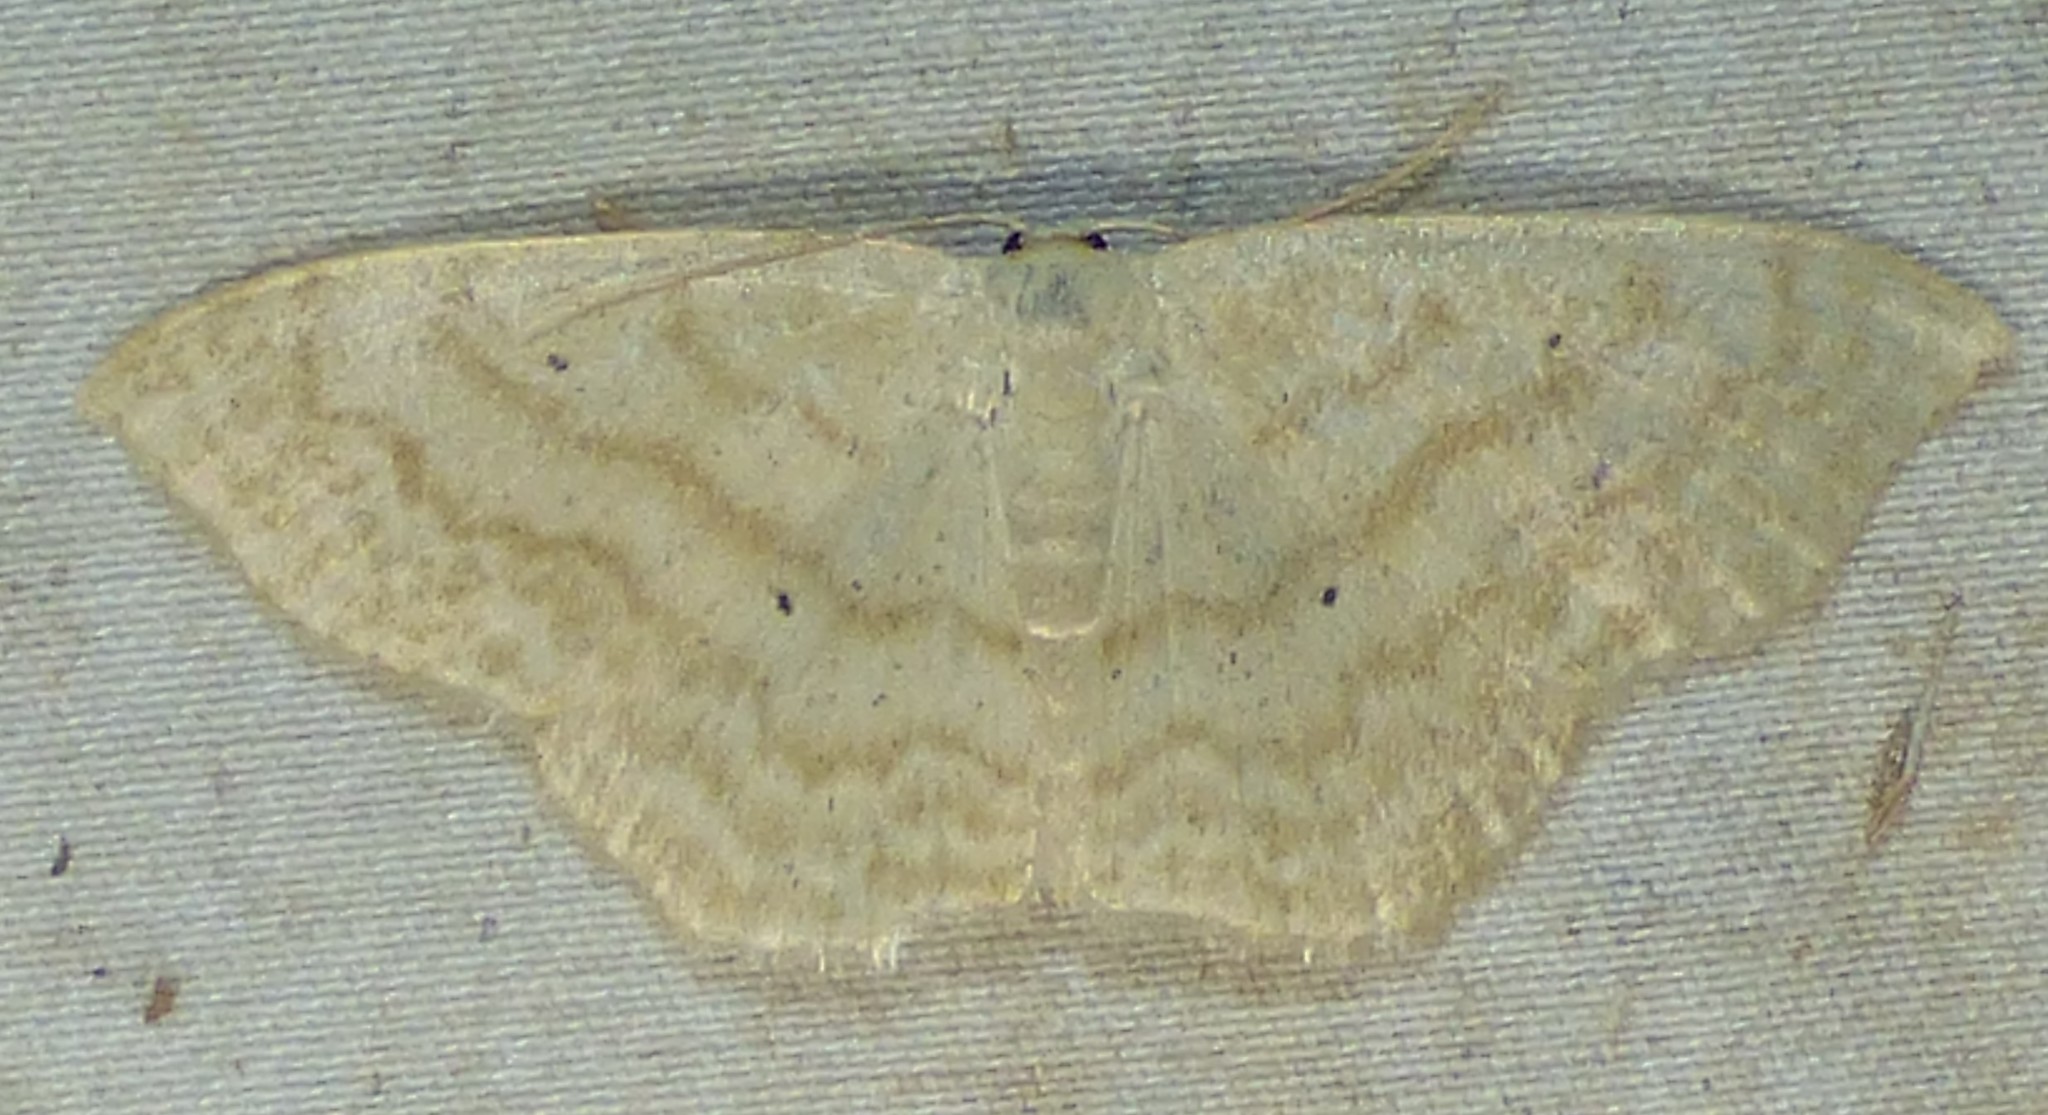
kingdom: Animalia
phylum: Arthropoda
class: Insecta
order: Lepidoptera
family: Geometridae
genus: Scopula
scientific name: Scopula limboundata
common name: Large lace border
